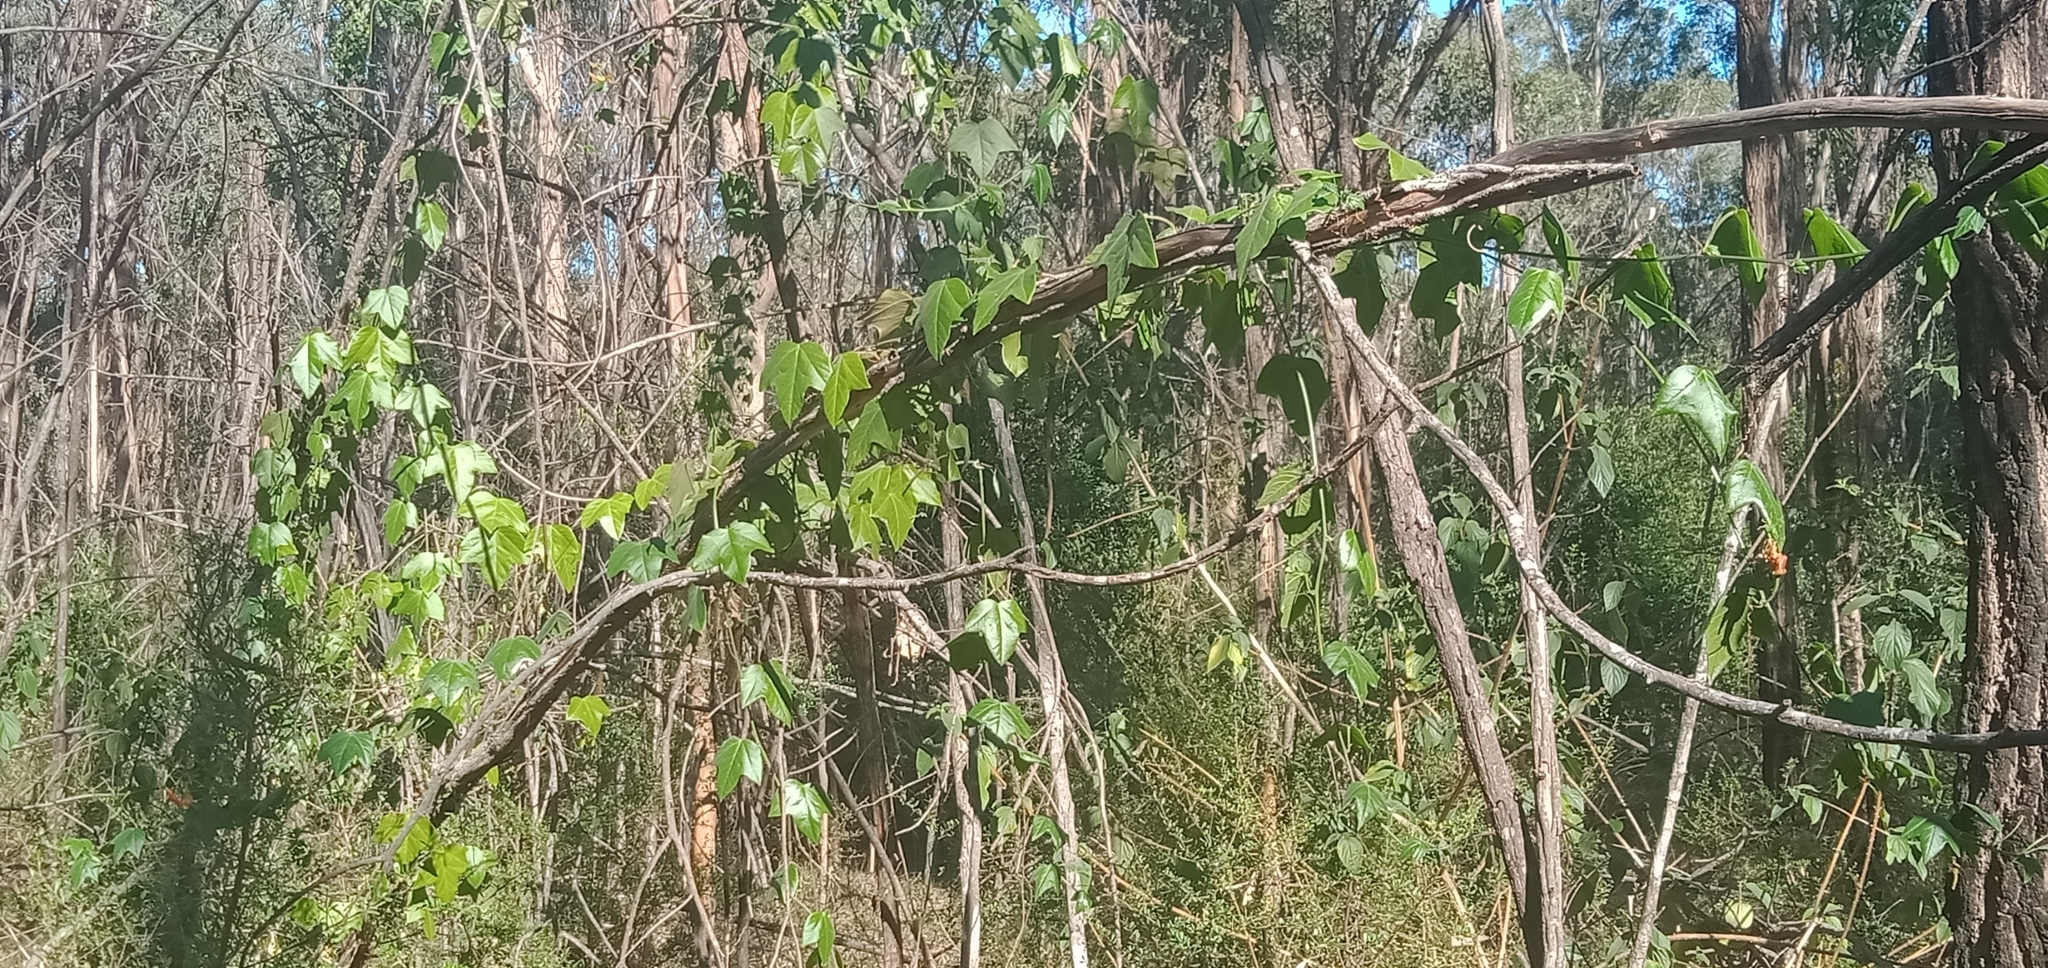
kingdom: Plantae
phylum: Tracheophyta
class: Magnoliopsida
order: Malpighiales
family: Passifloraceae
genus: Passiflora
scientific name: Passiflora herbertiana
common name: Yellow passionflower
